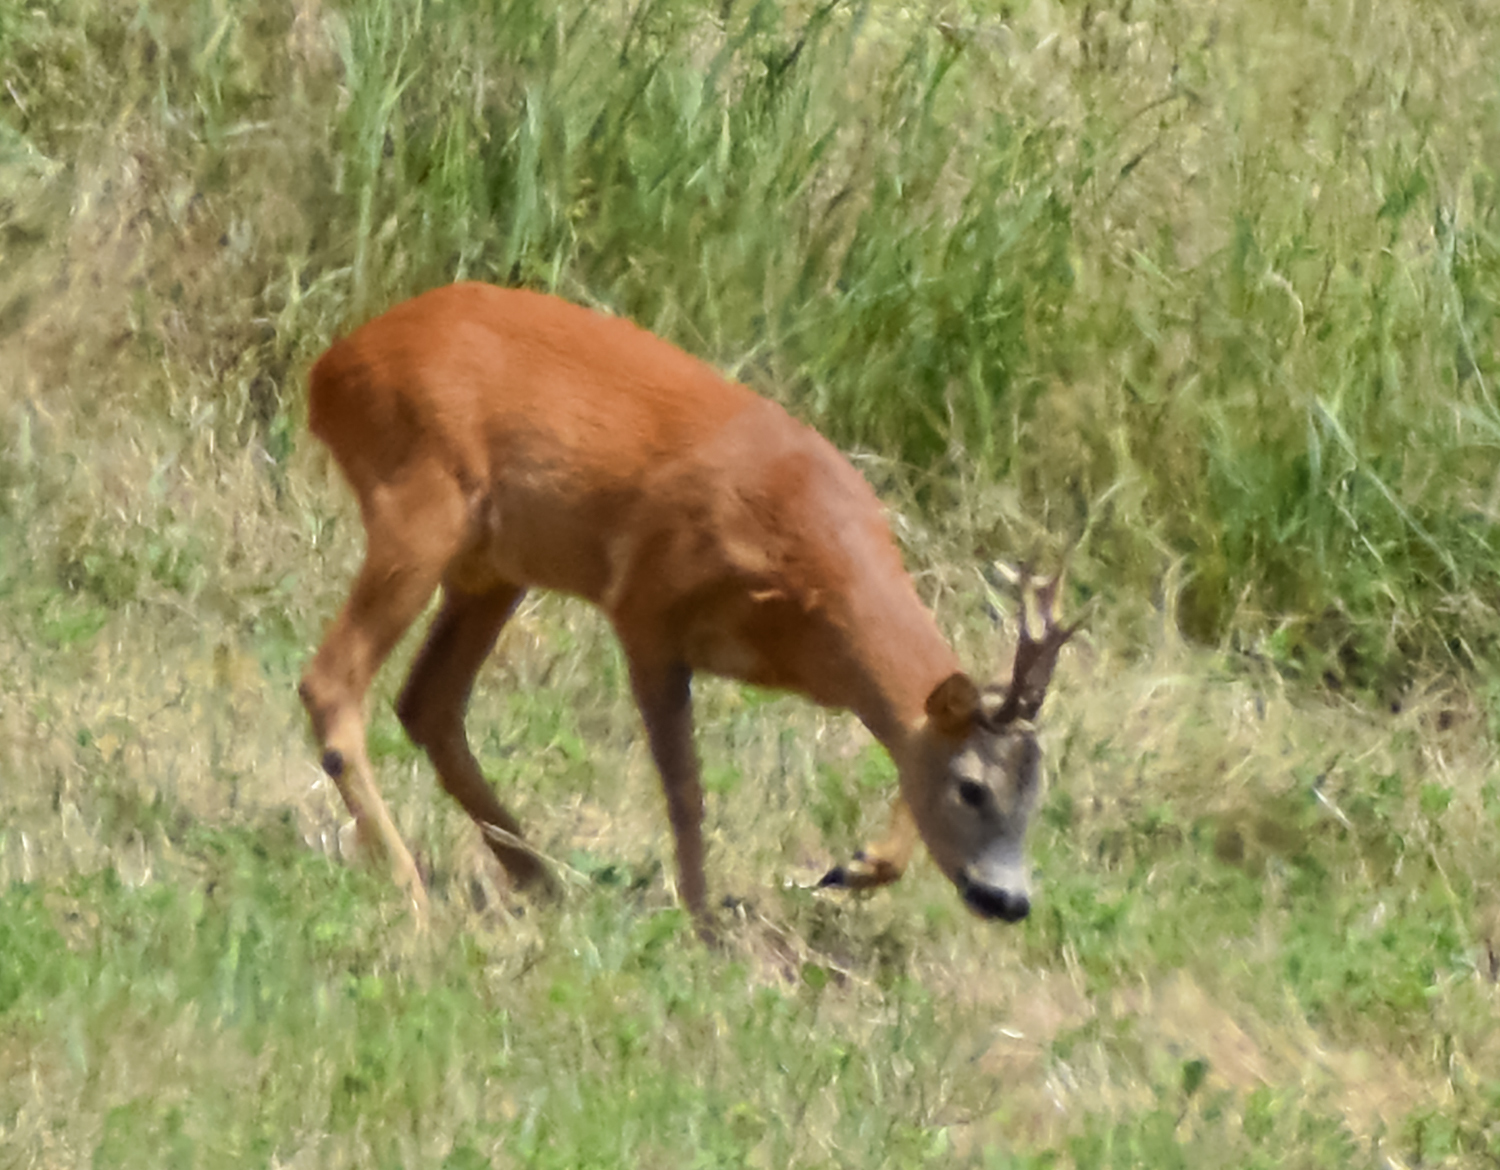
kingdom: Animalia
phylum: Chordata
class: Mammalia
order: Artiodactyla
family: Cervidae
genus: Capreolus
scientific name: Capreolus capreolus
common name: Western roe deer
